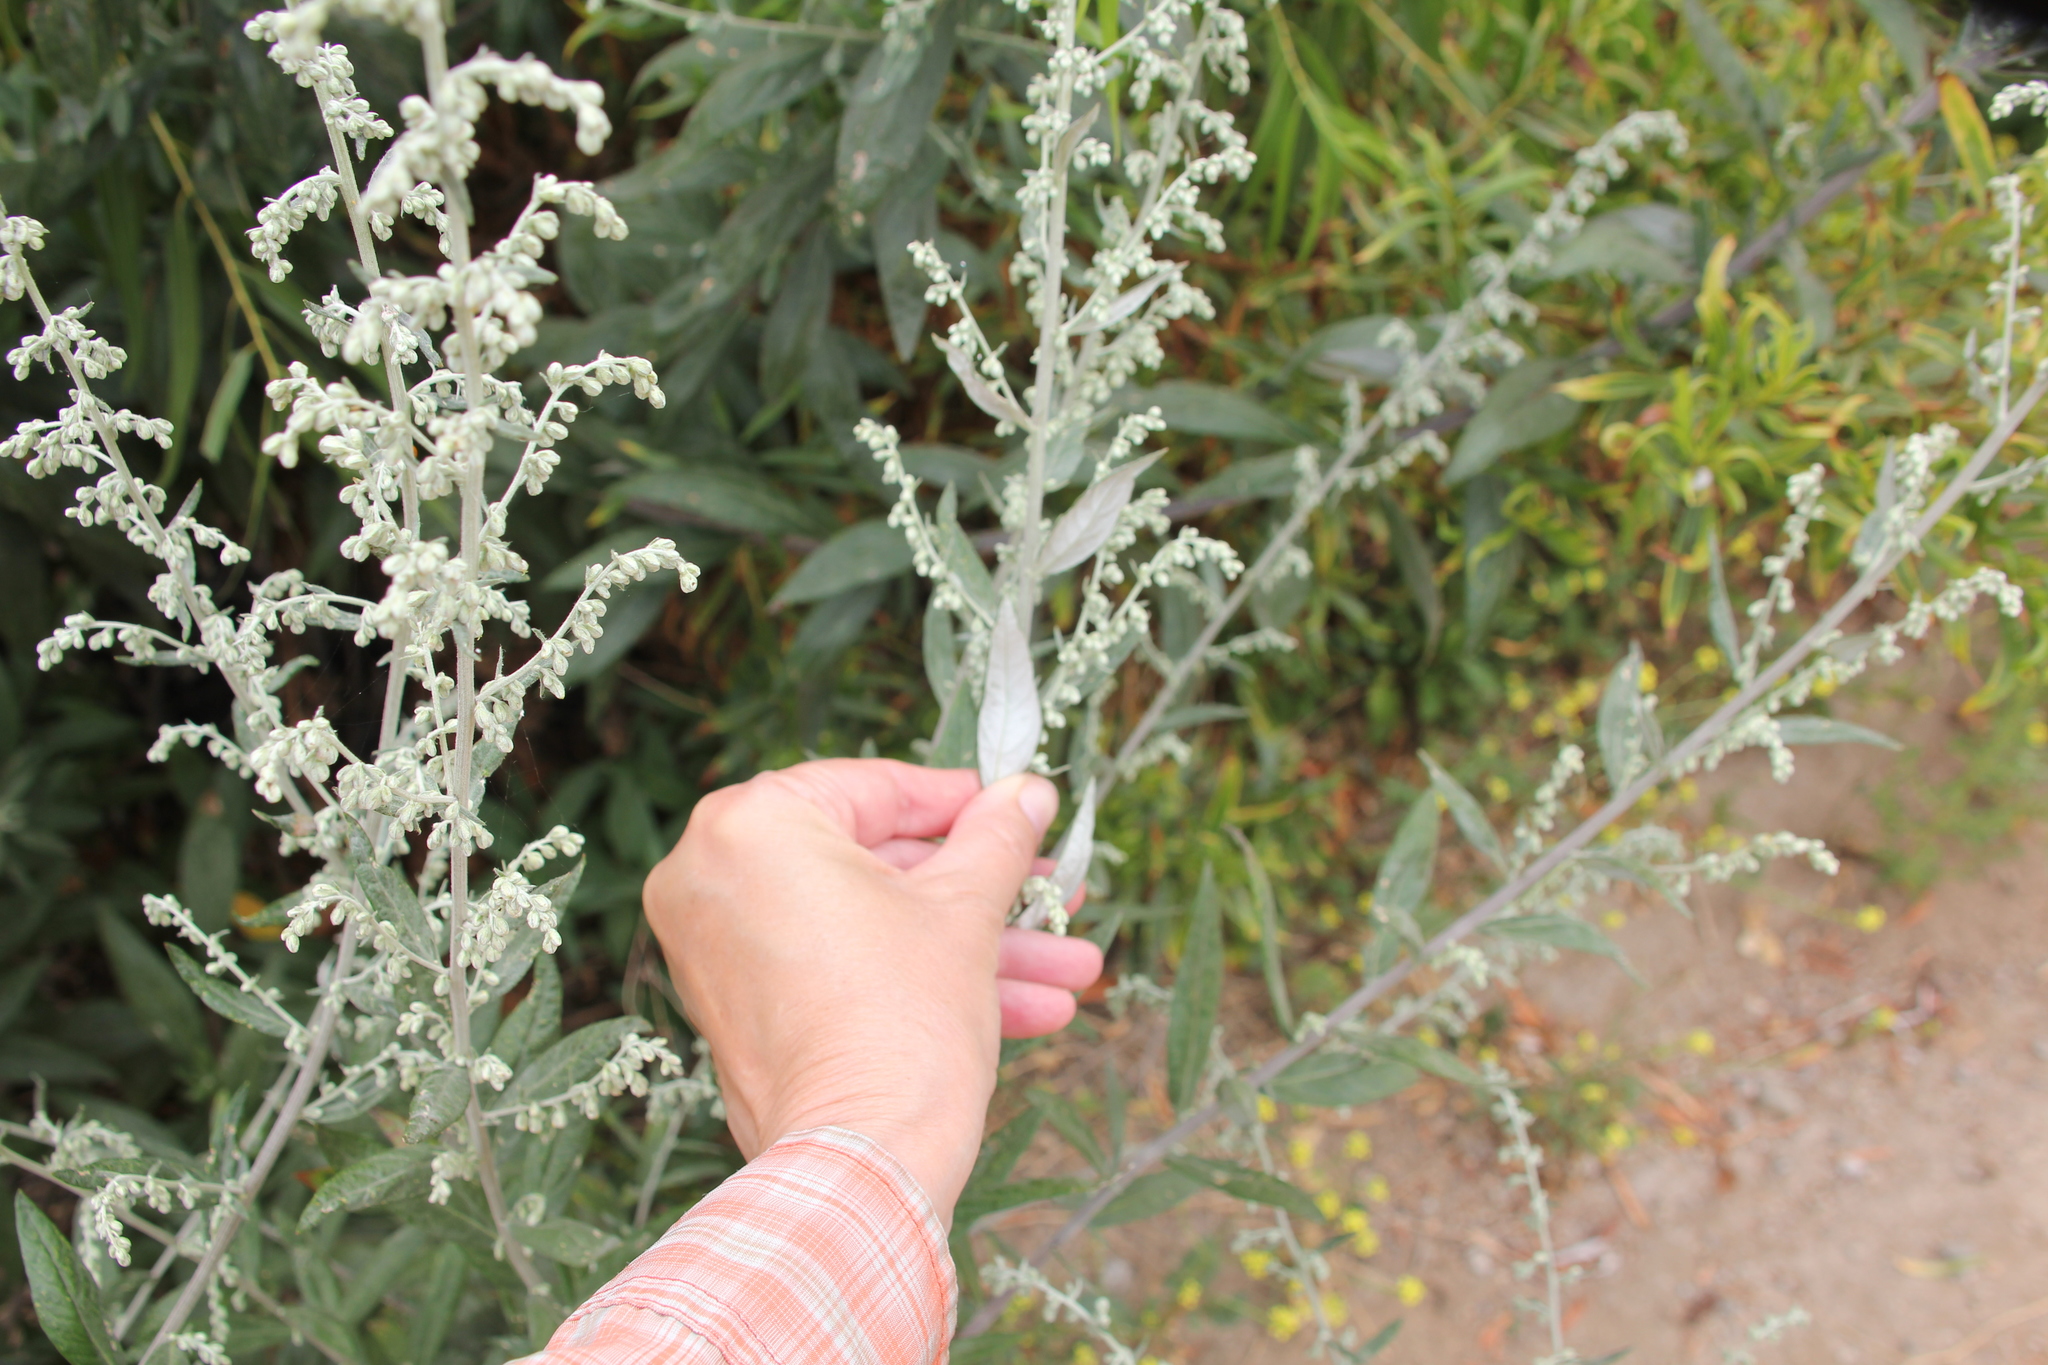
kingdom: Plantae
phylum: Tracheophyta
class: Magnoliopsida
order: Asterales
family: Asteraceae
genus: Artemisia
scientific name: Artemisia douglasiana
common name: Northwest mugwort
